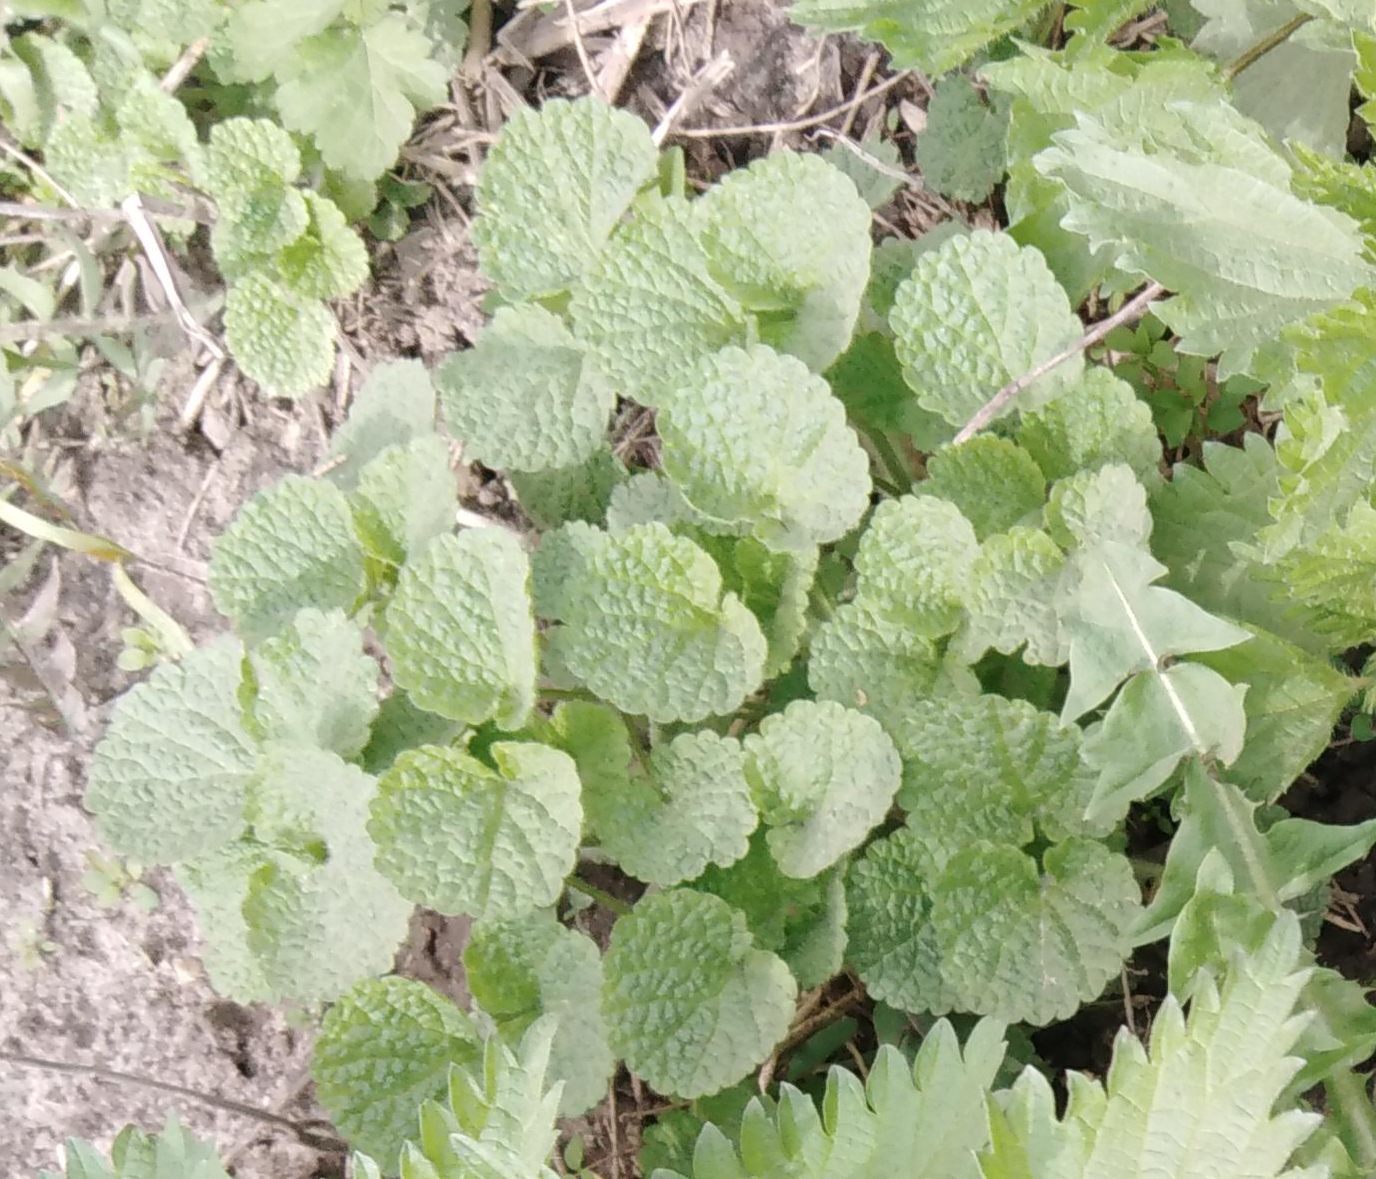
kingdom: Plantae
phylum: Tracheophyta
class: Magnoliopsida
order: Lamiales
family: Lamiaceae
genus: Ballota
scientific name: Ballota nigra
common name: Black horehound
